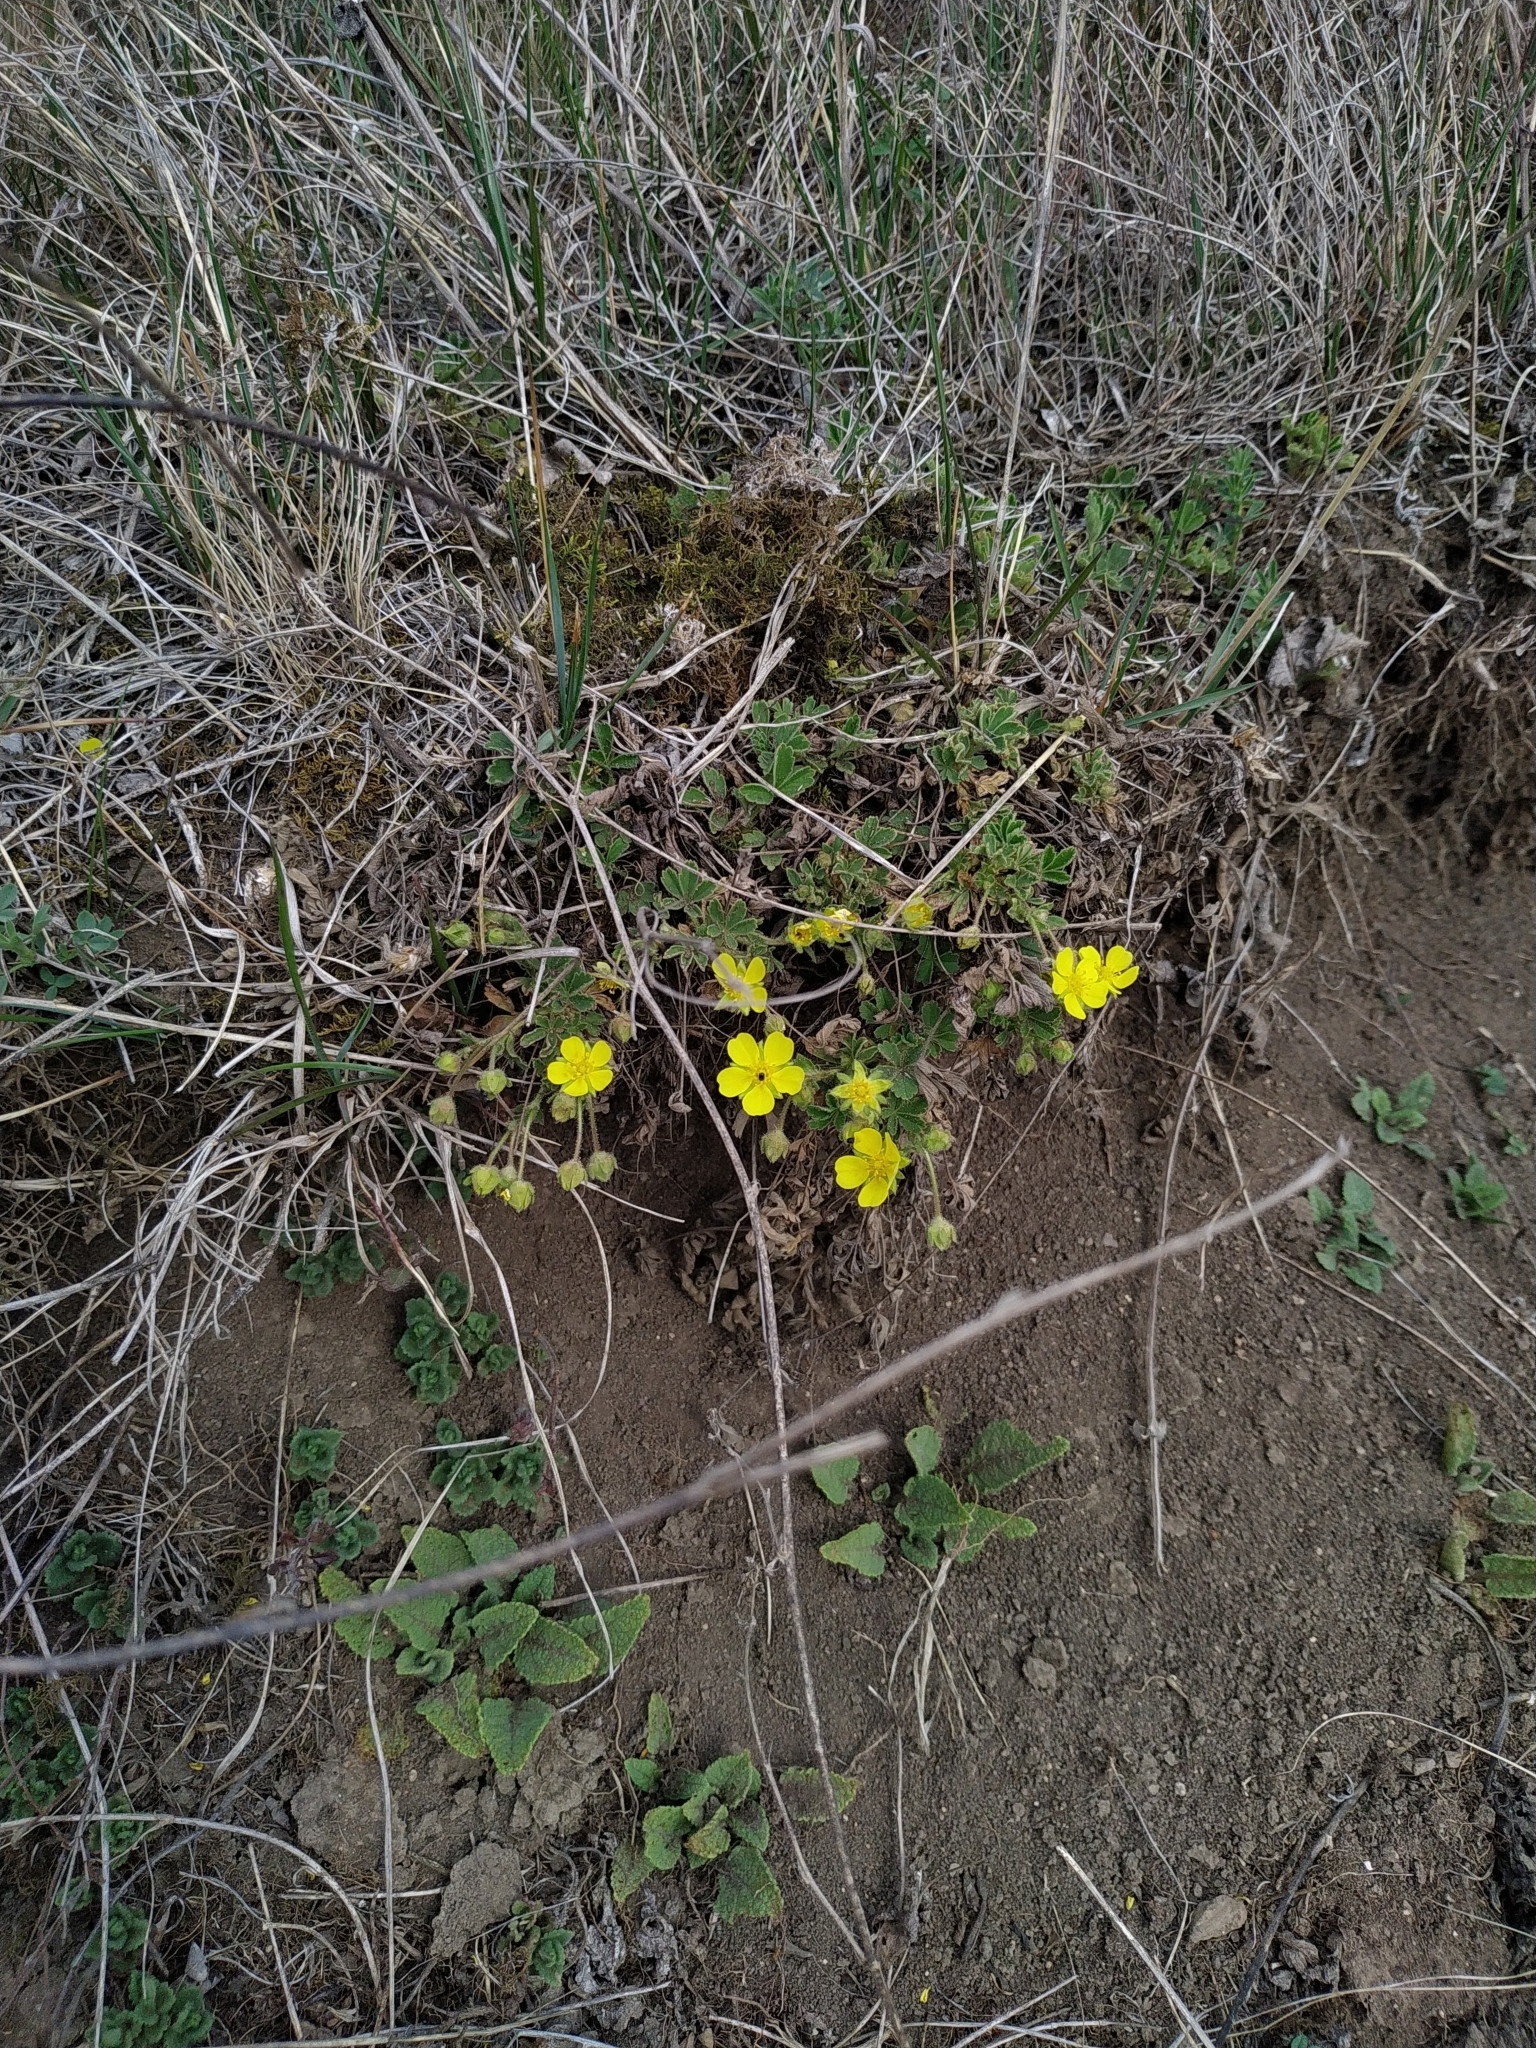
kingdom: Plantae
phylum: Tracheophyta
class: Magnoliopsida
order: Rosales
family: Rosaceae
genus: Potentilla
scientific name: Potentilla incana
